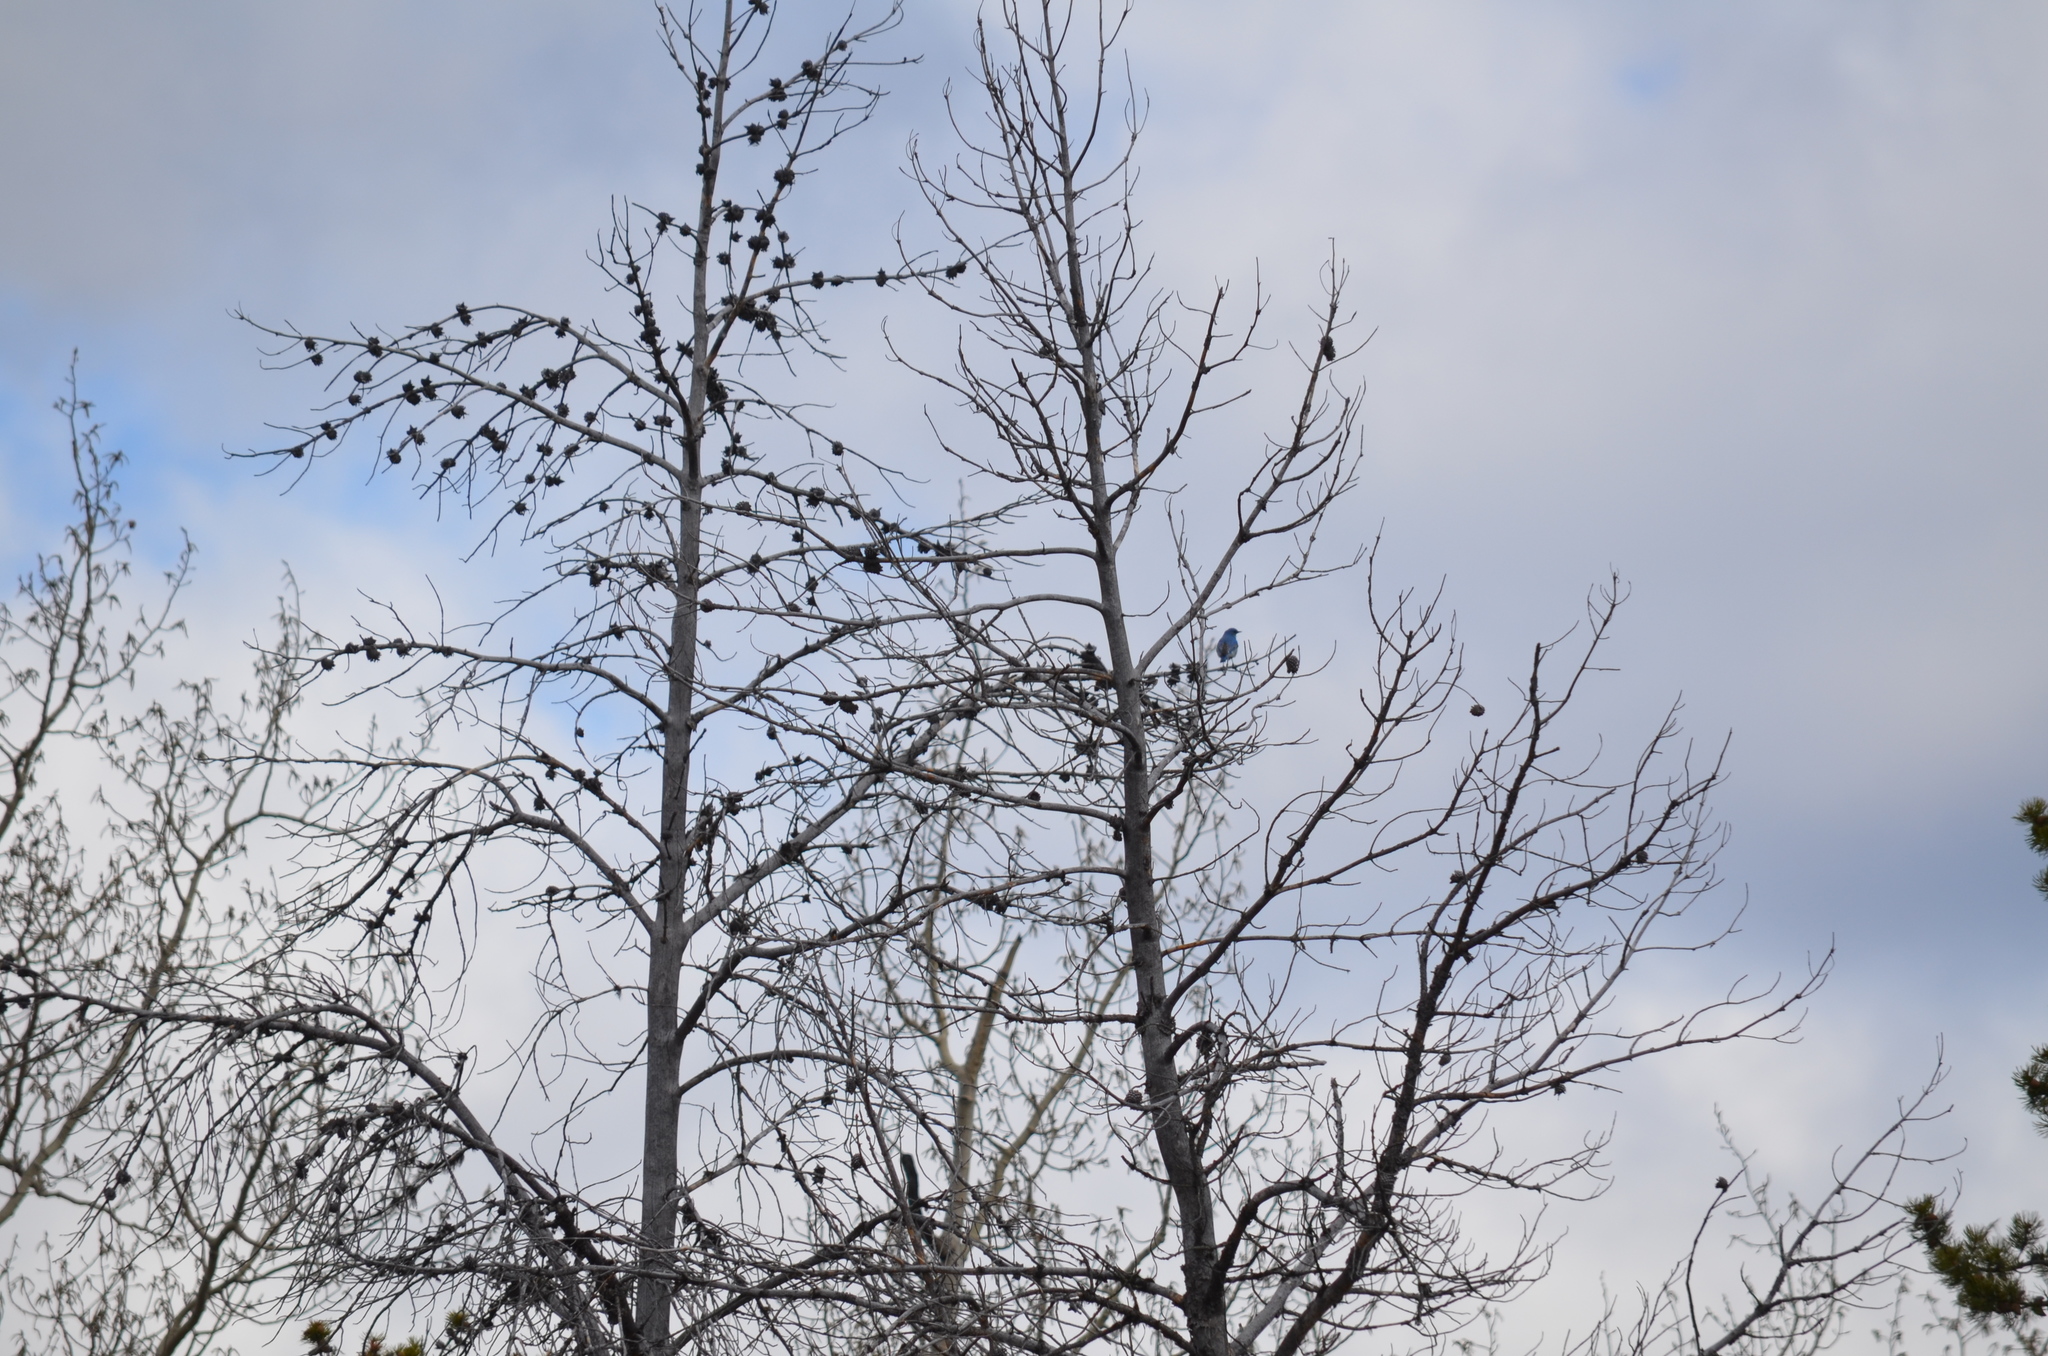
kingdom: Animalia
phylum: Chordata
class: Aves
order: Passeriformes
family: Turdidae
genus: Sialia
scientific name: Sialia currucoides
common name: Mountain bluebird
